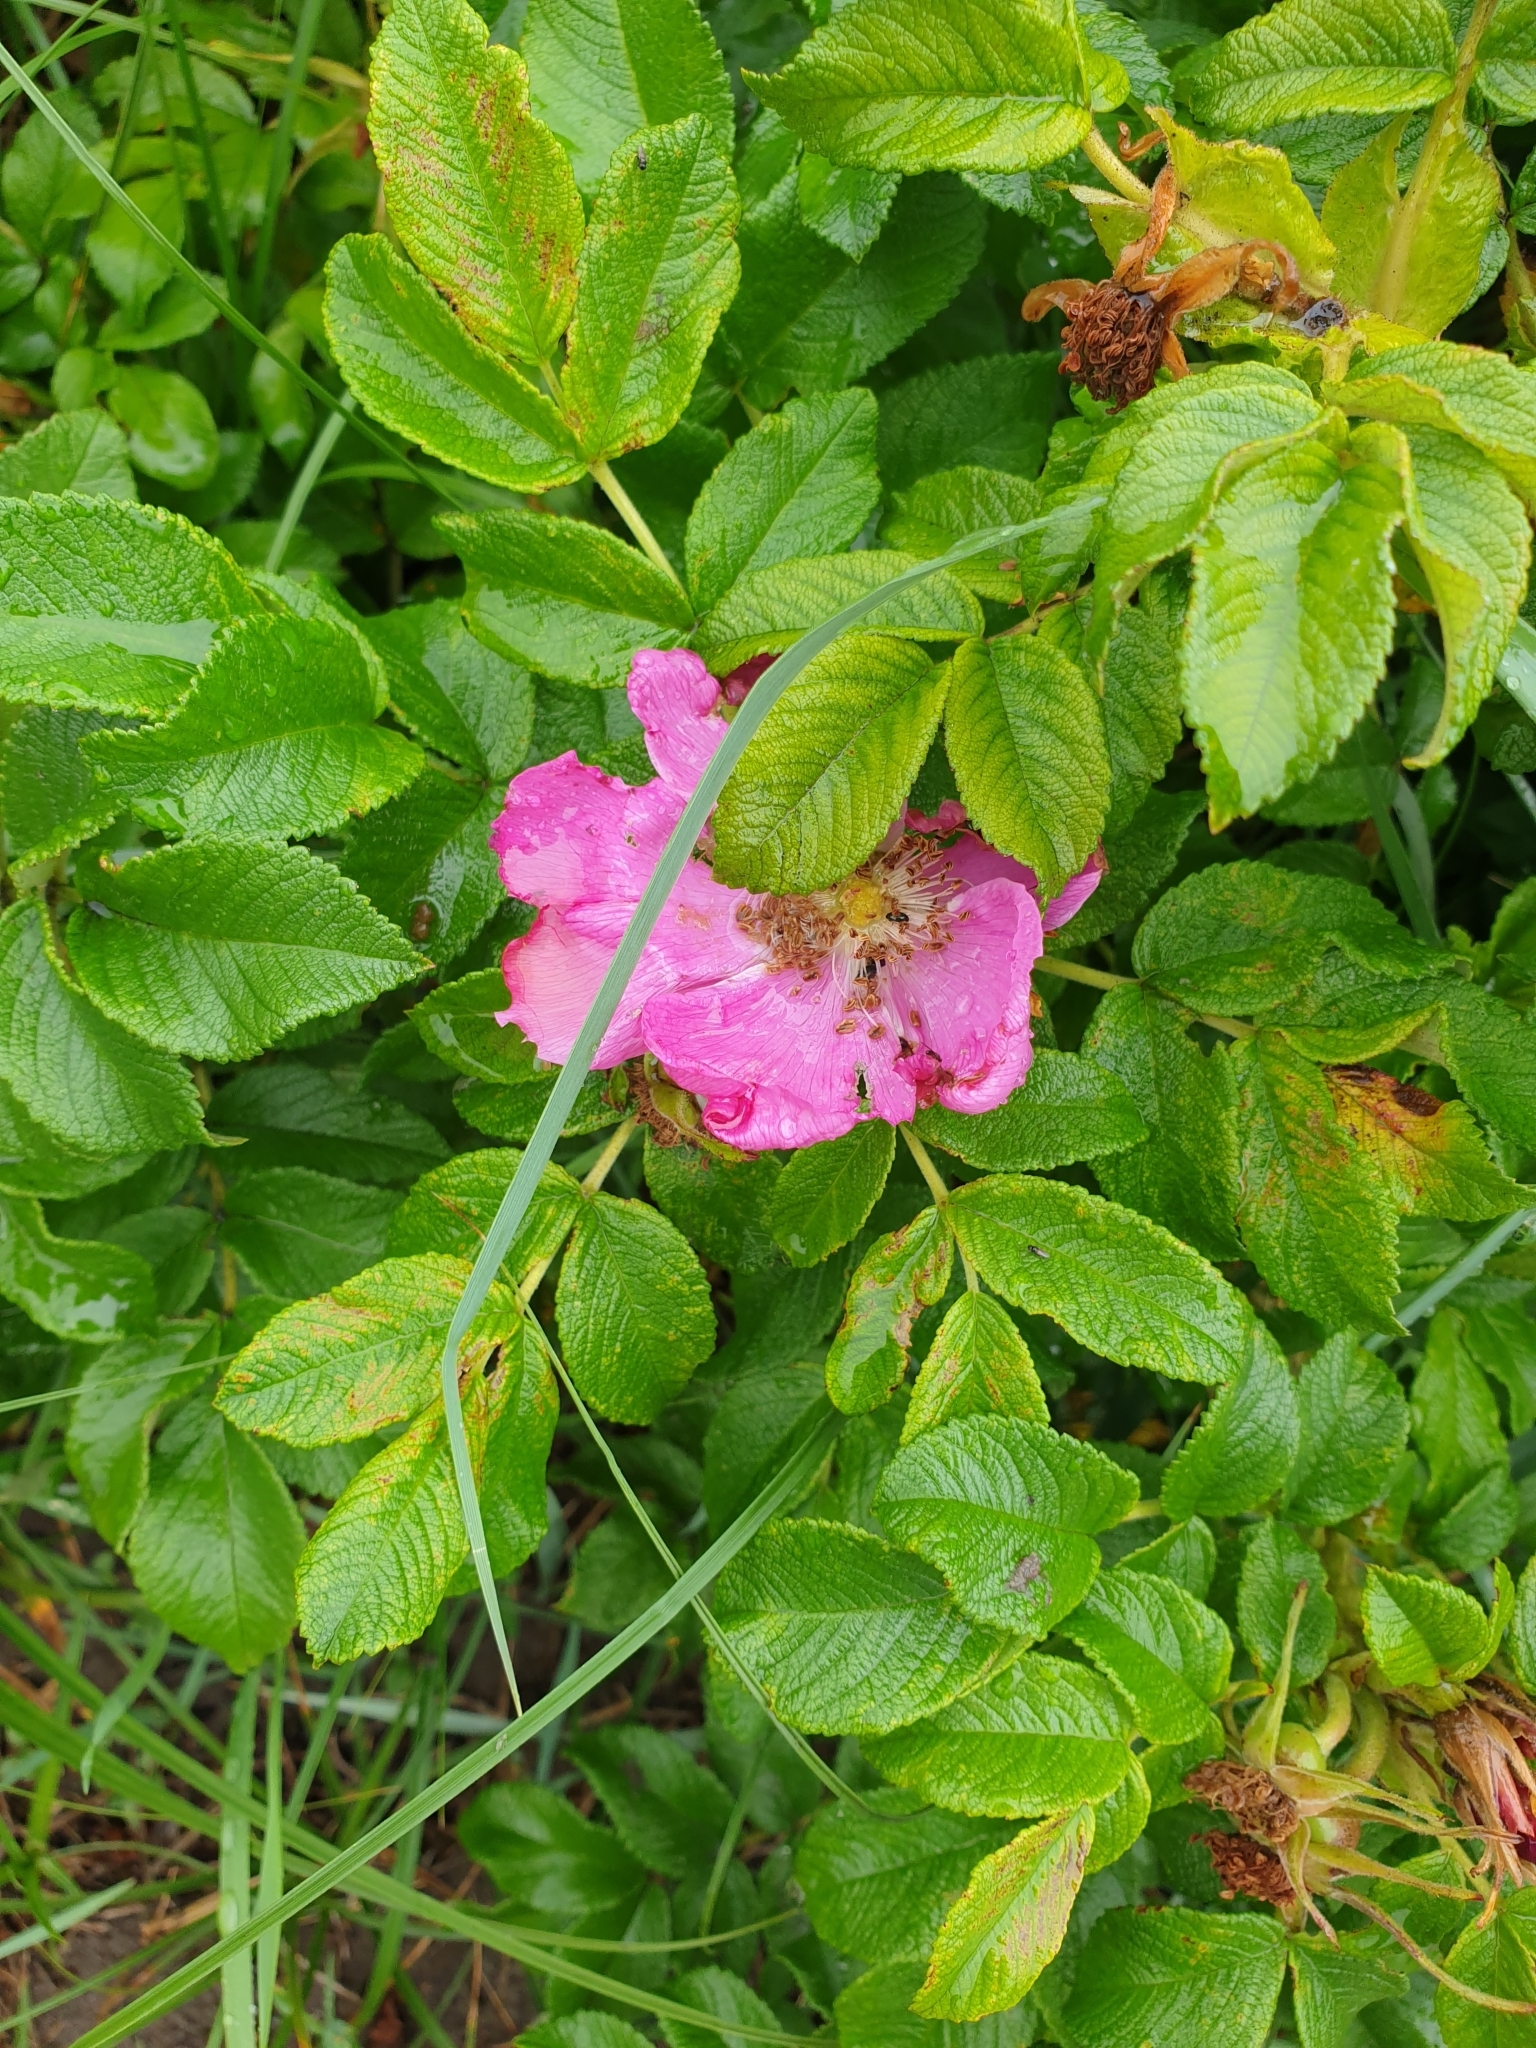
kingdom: Plantae
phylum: Tracheophyta
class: Magnoliopsida
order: Rosales
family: Rosaceae
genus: Rosa
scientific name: Rosa rugosa
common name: Japanese rose
